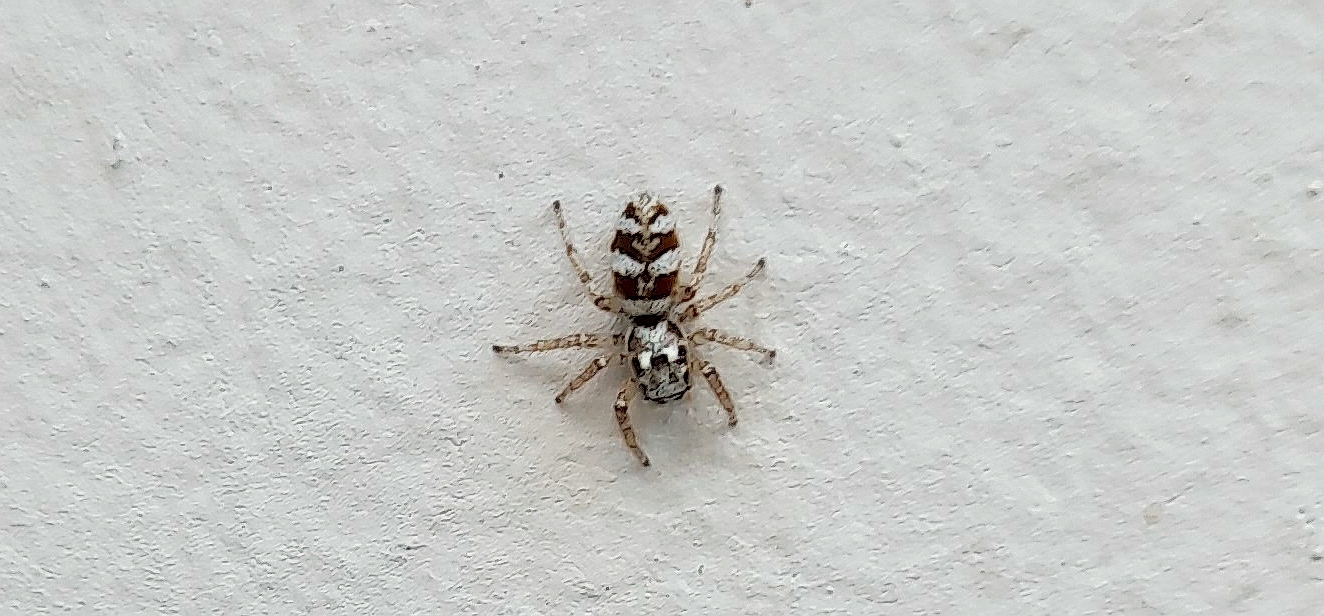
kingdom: Animalia
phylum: Arthropoda
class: Arachnida
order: Araneae
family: Salticidae
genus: Salticus
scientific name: Salticus scenicus
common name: Zebra jumper
